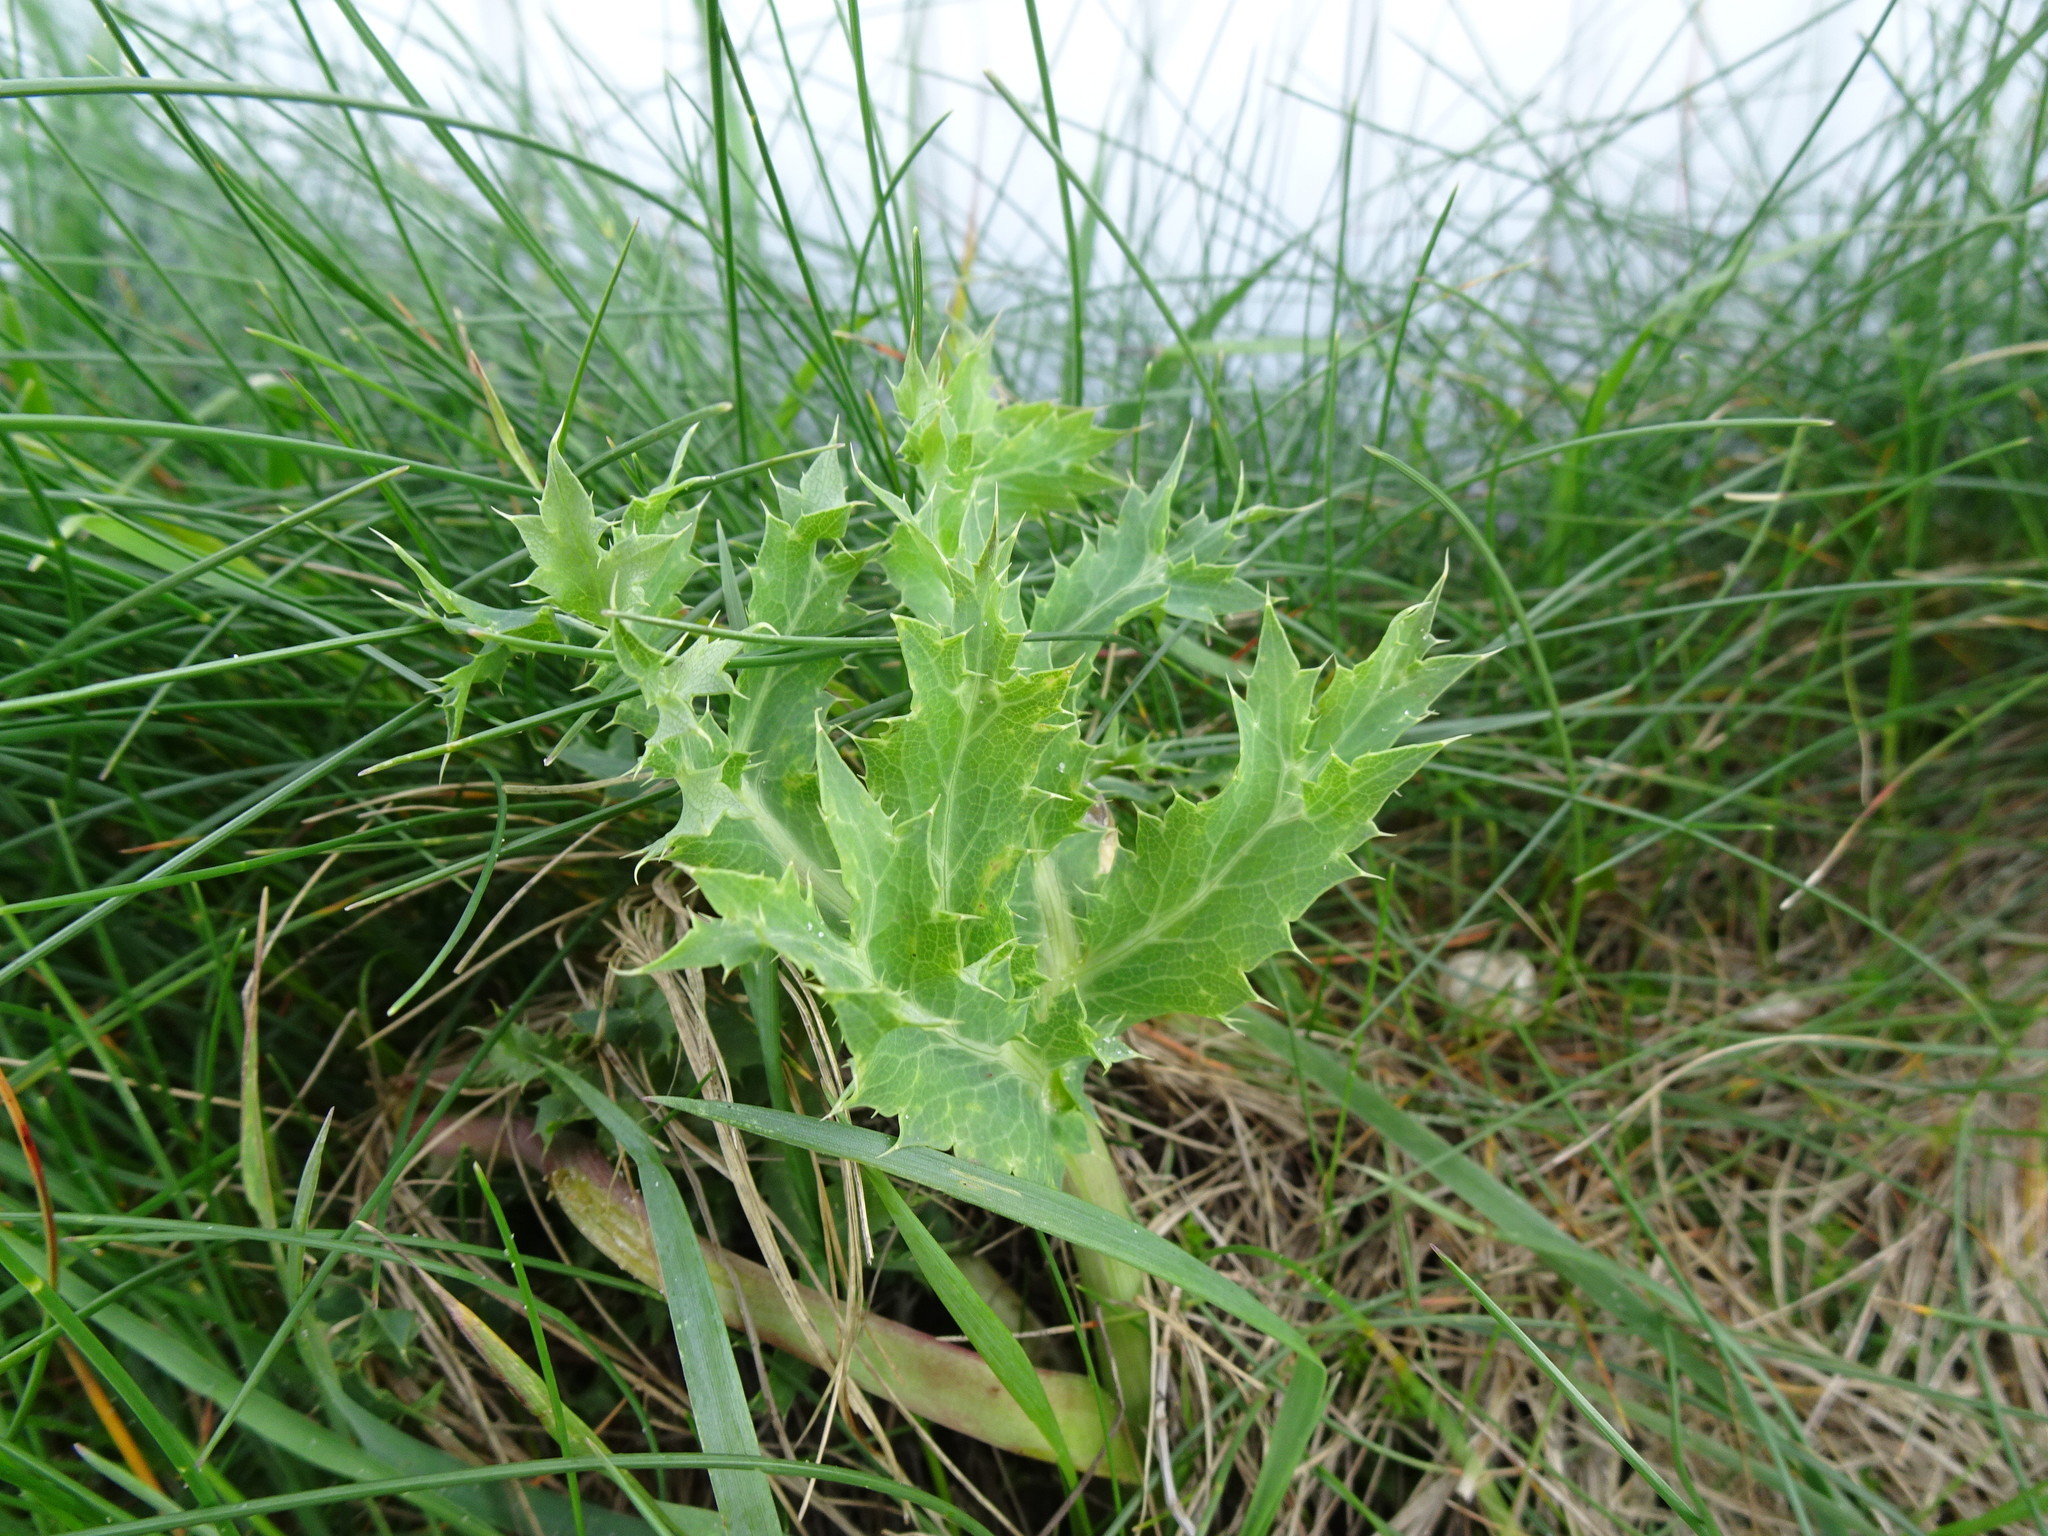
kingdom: Plantae
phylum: Tracheophyta
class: Magnoliopsida
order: Apiales
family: Apiaceae
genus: Eryngium
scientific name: Eryngium campestre
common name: Field eryngo
